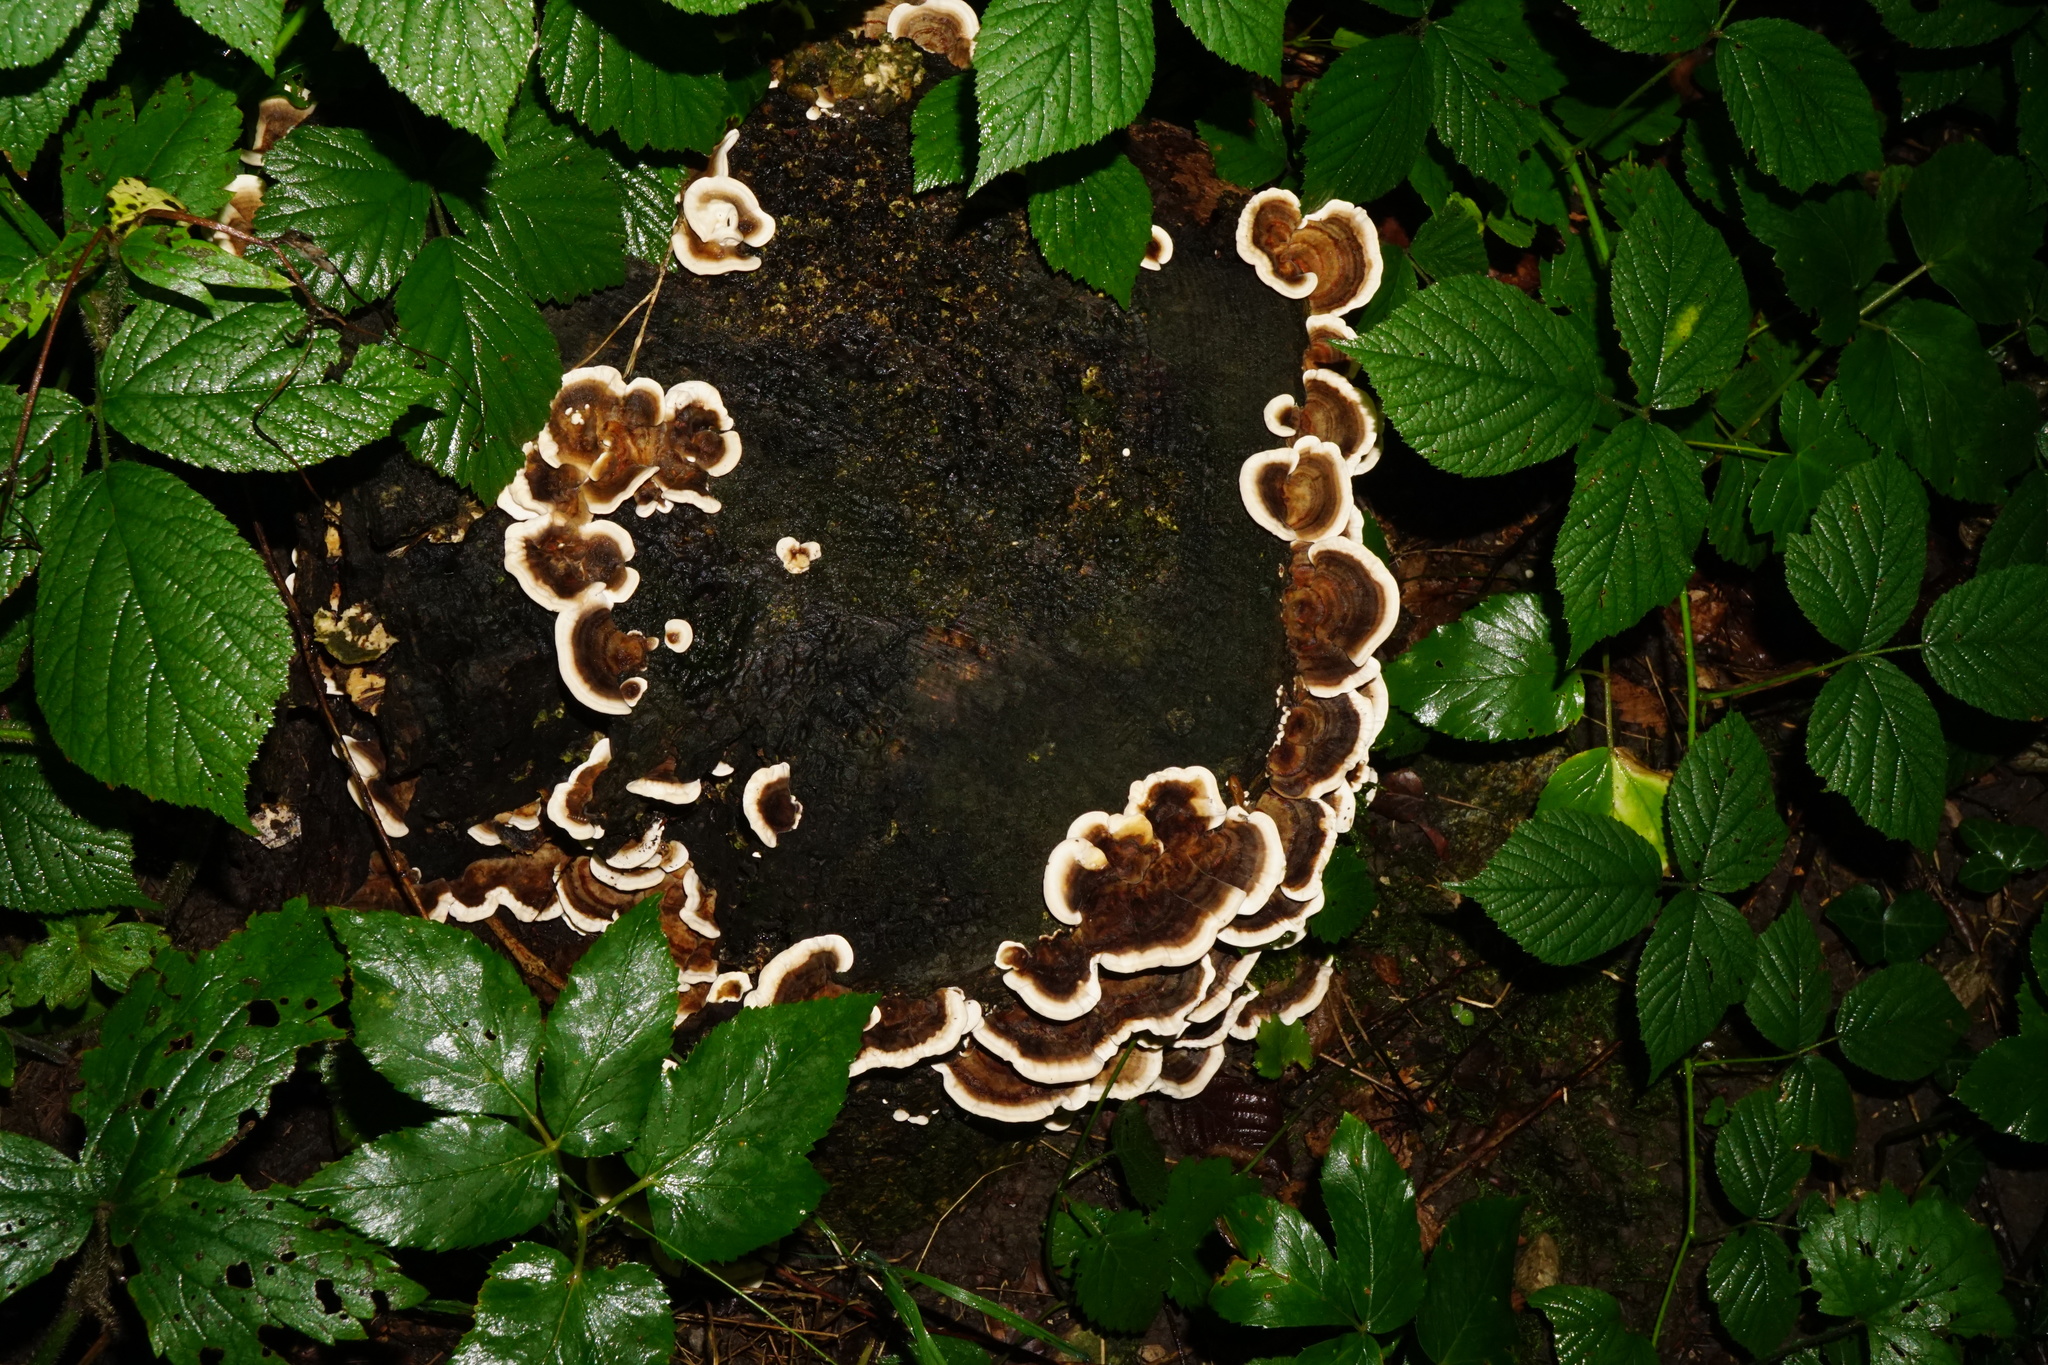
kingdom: Fungi
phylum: Basidiomycota
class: Agaricomycetes
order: Polyporales
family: Polyporaceae
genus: Trametes
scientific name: Trametes versicolor
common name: Turkeytail
